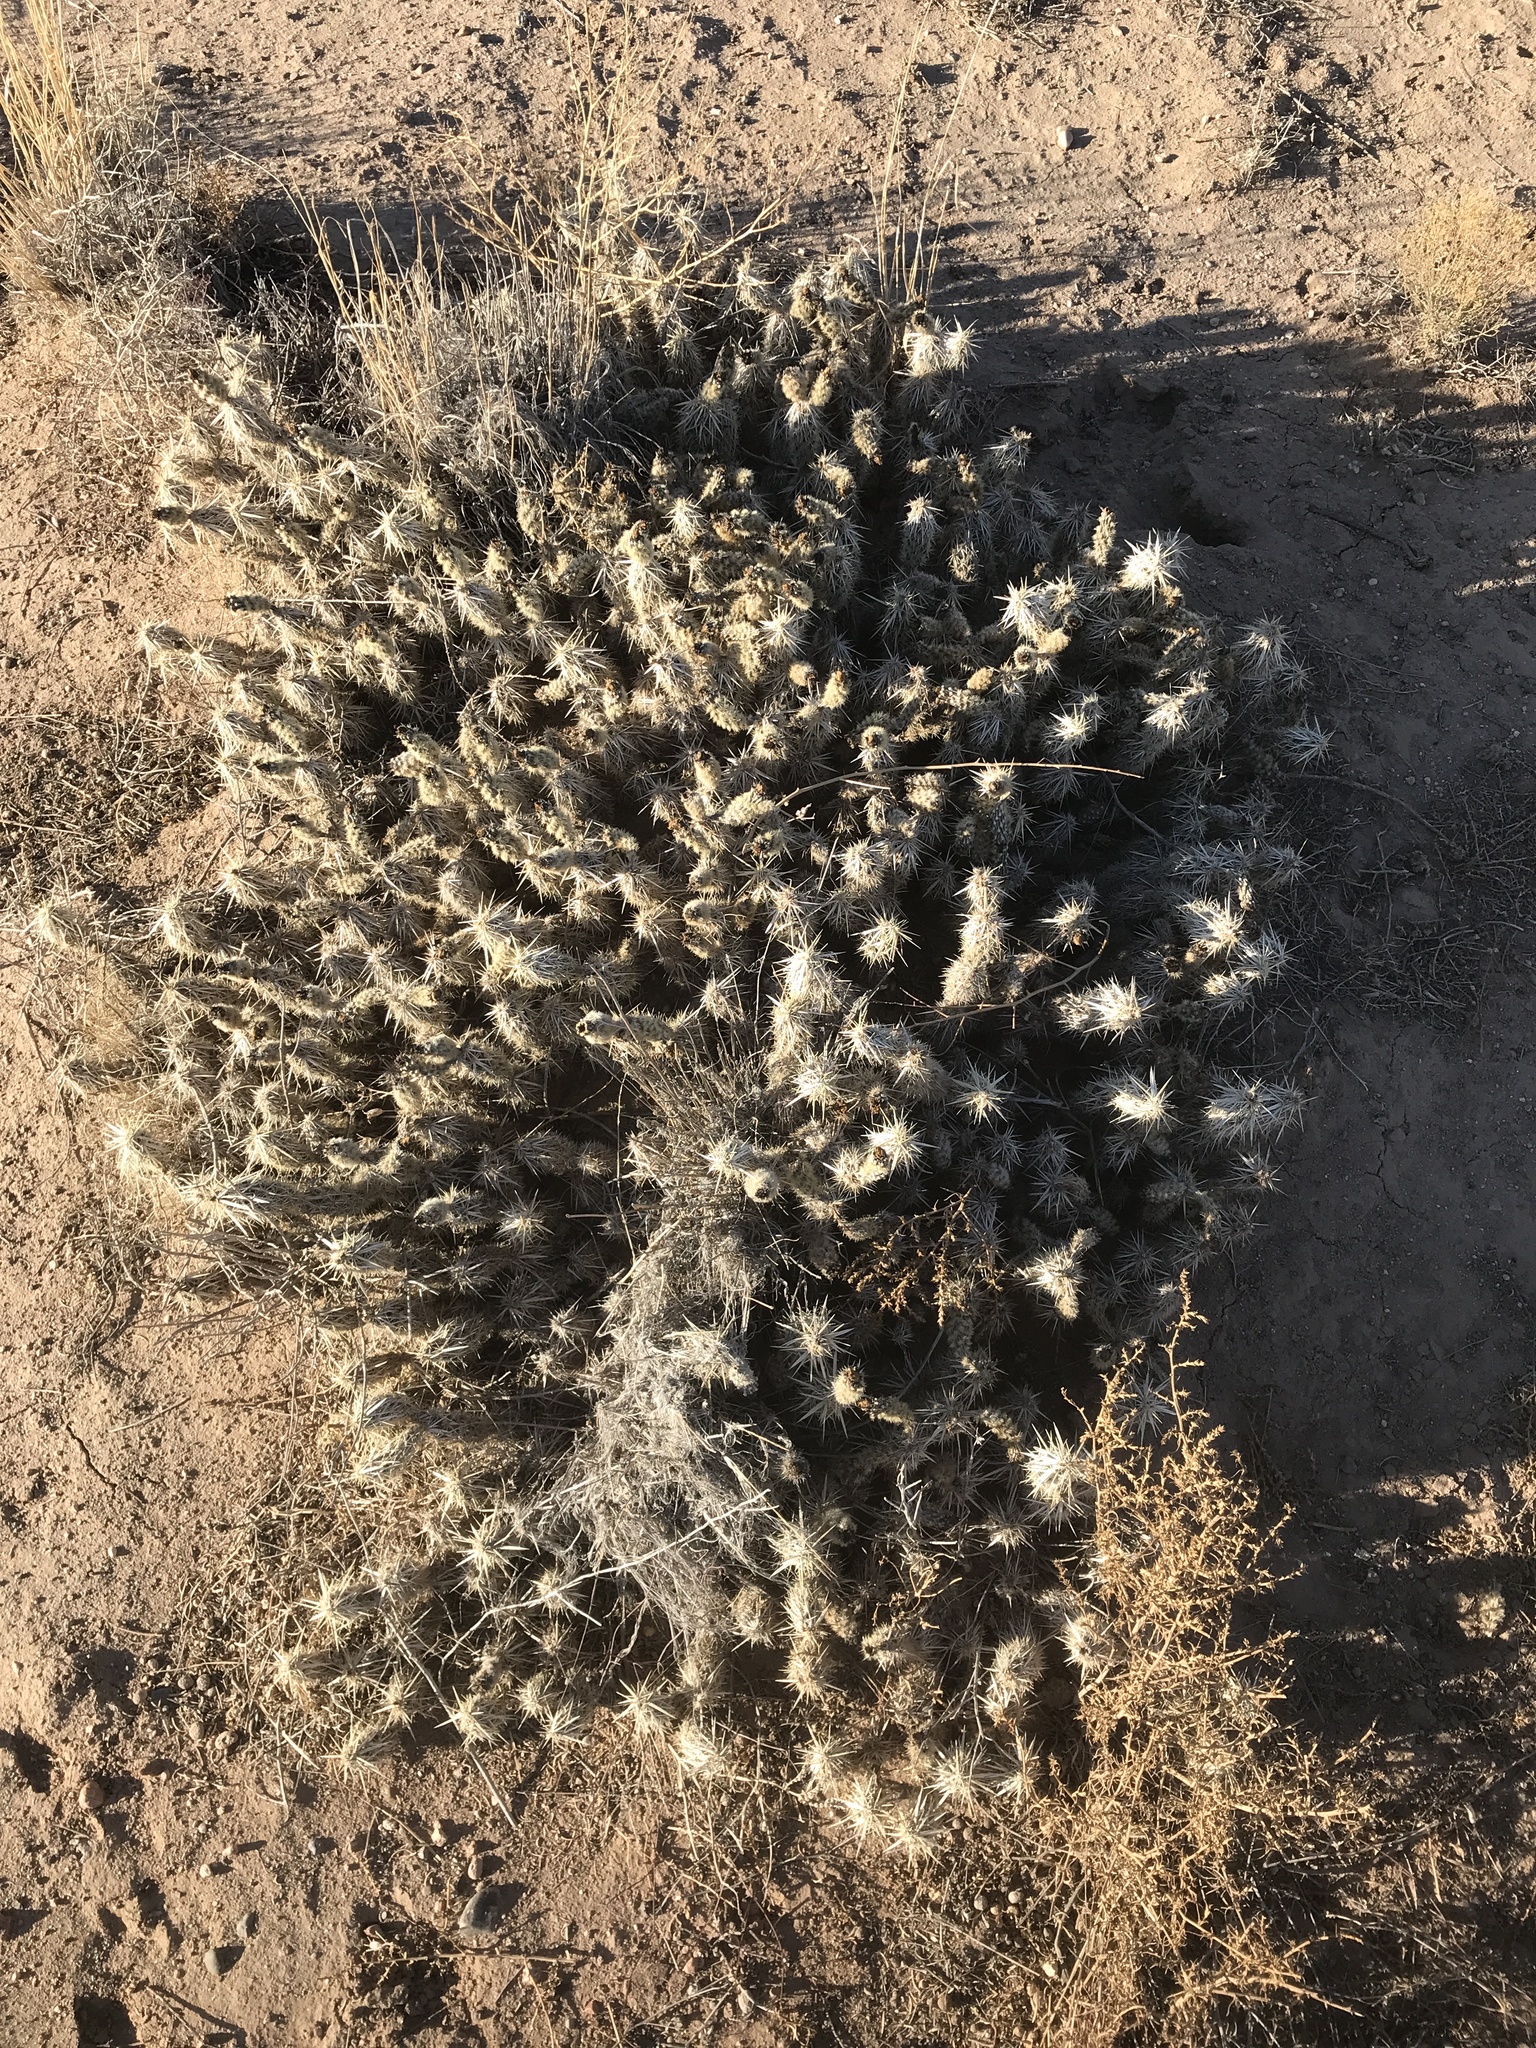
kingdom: Plantae
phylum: Tracheophyta
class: Magnoliopsida
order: Caryophyllales
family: Cactaceae
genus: Grusonia
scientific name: Grusonia clavata
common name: Club cholla
